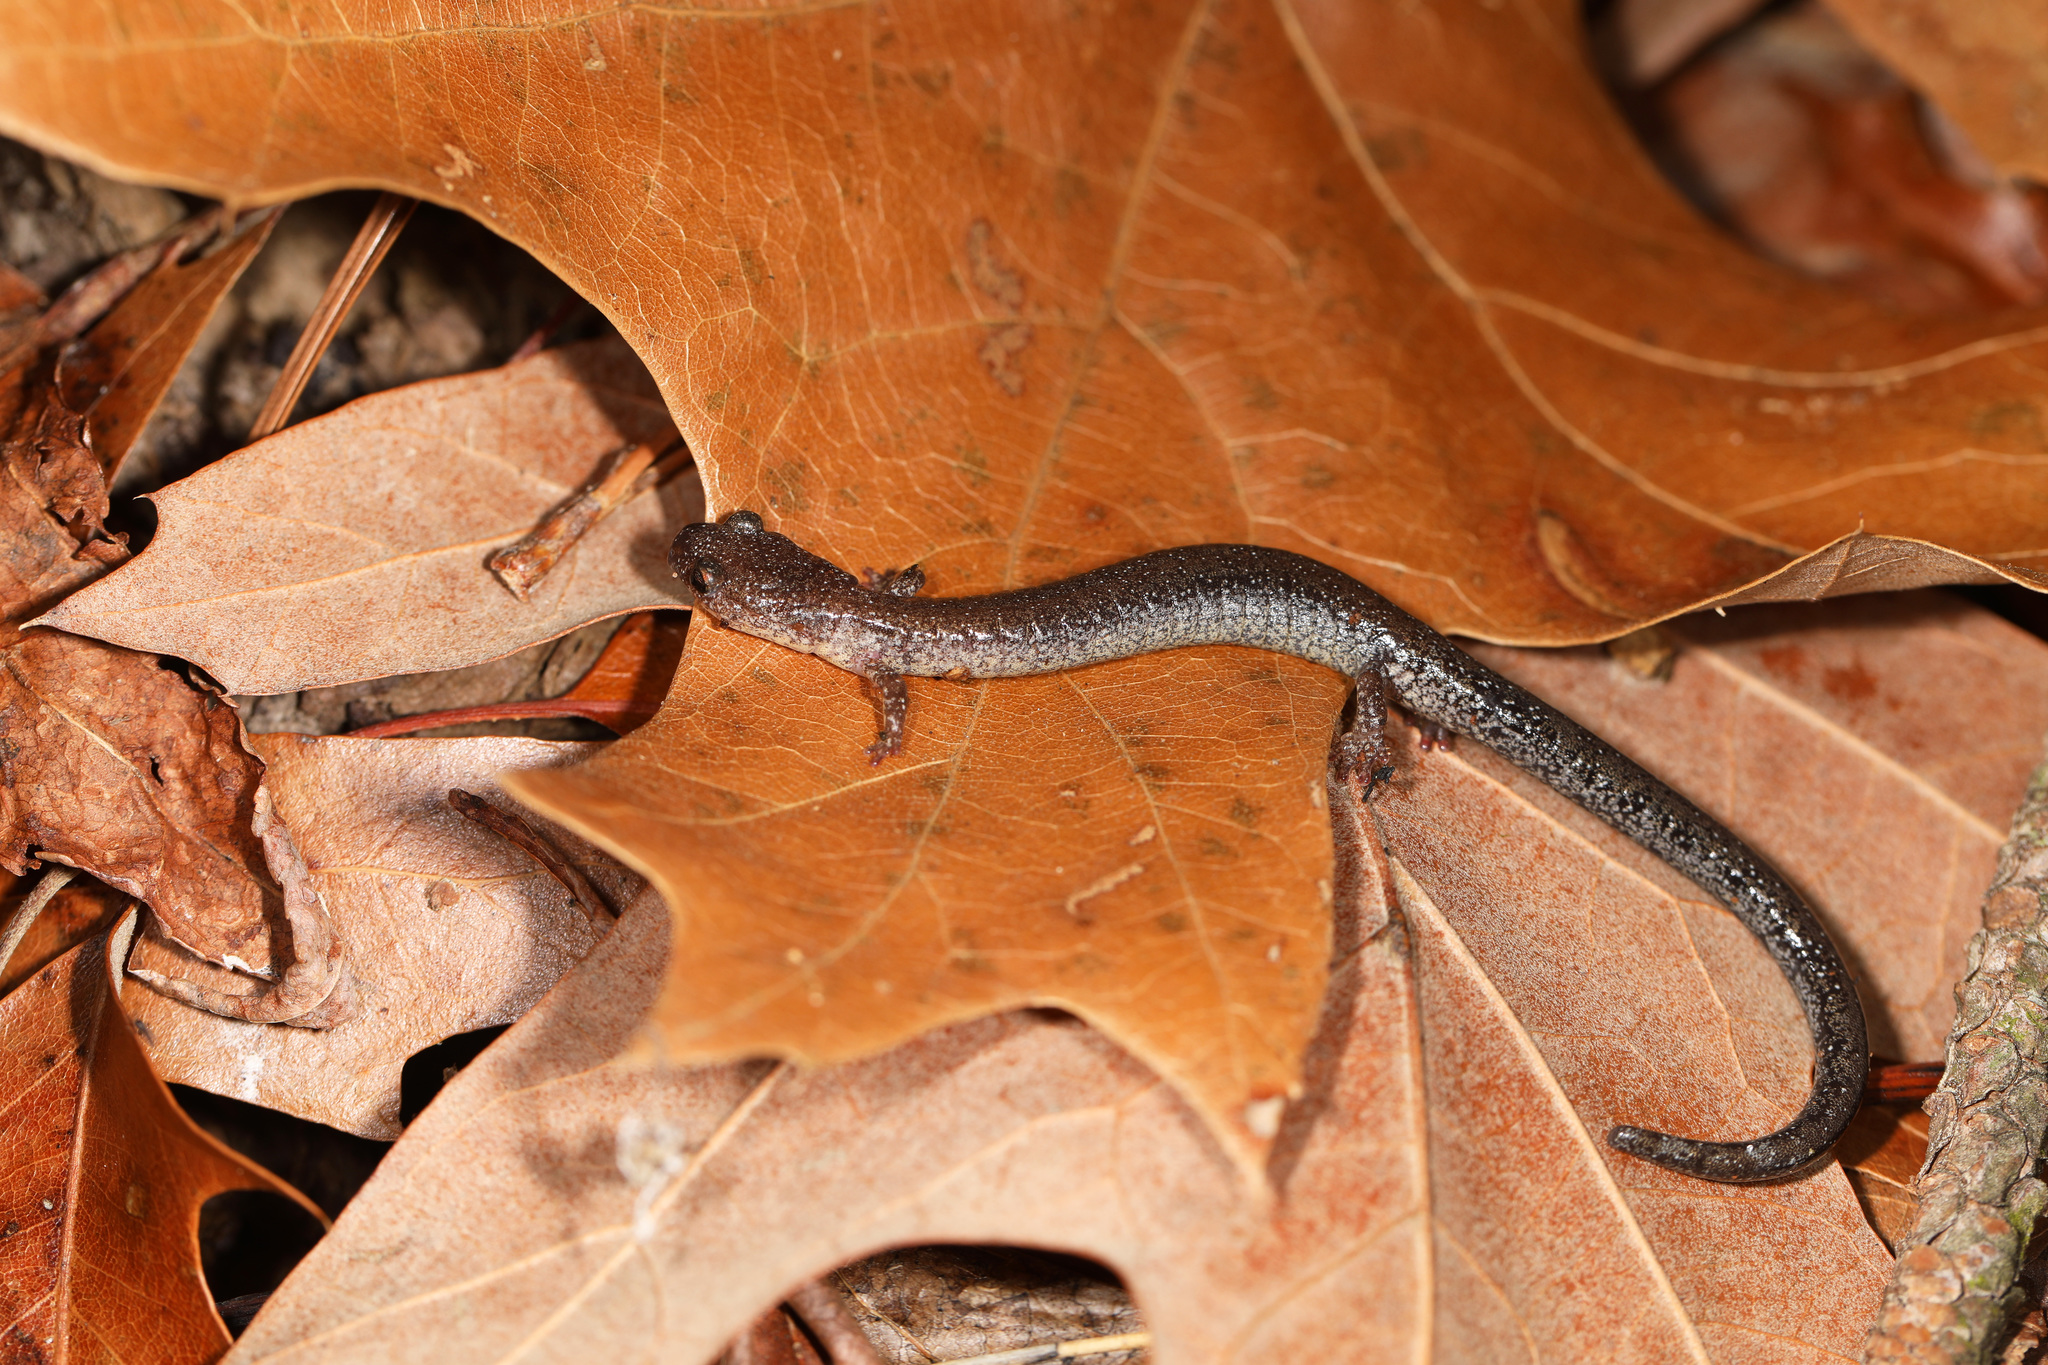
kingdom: Animalia
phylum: Chordata
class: Amphibia
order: Caudata
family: Plethodontidae
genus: Plethodon
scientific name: Plethodon cinereus
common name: Redback salamander
